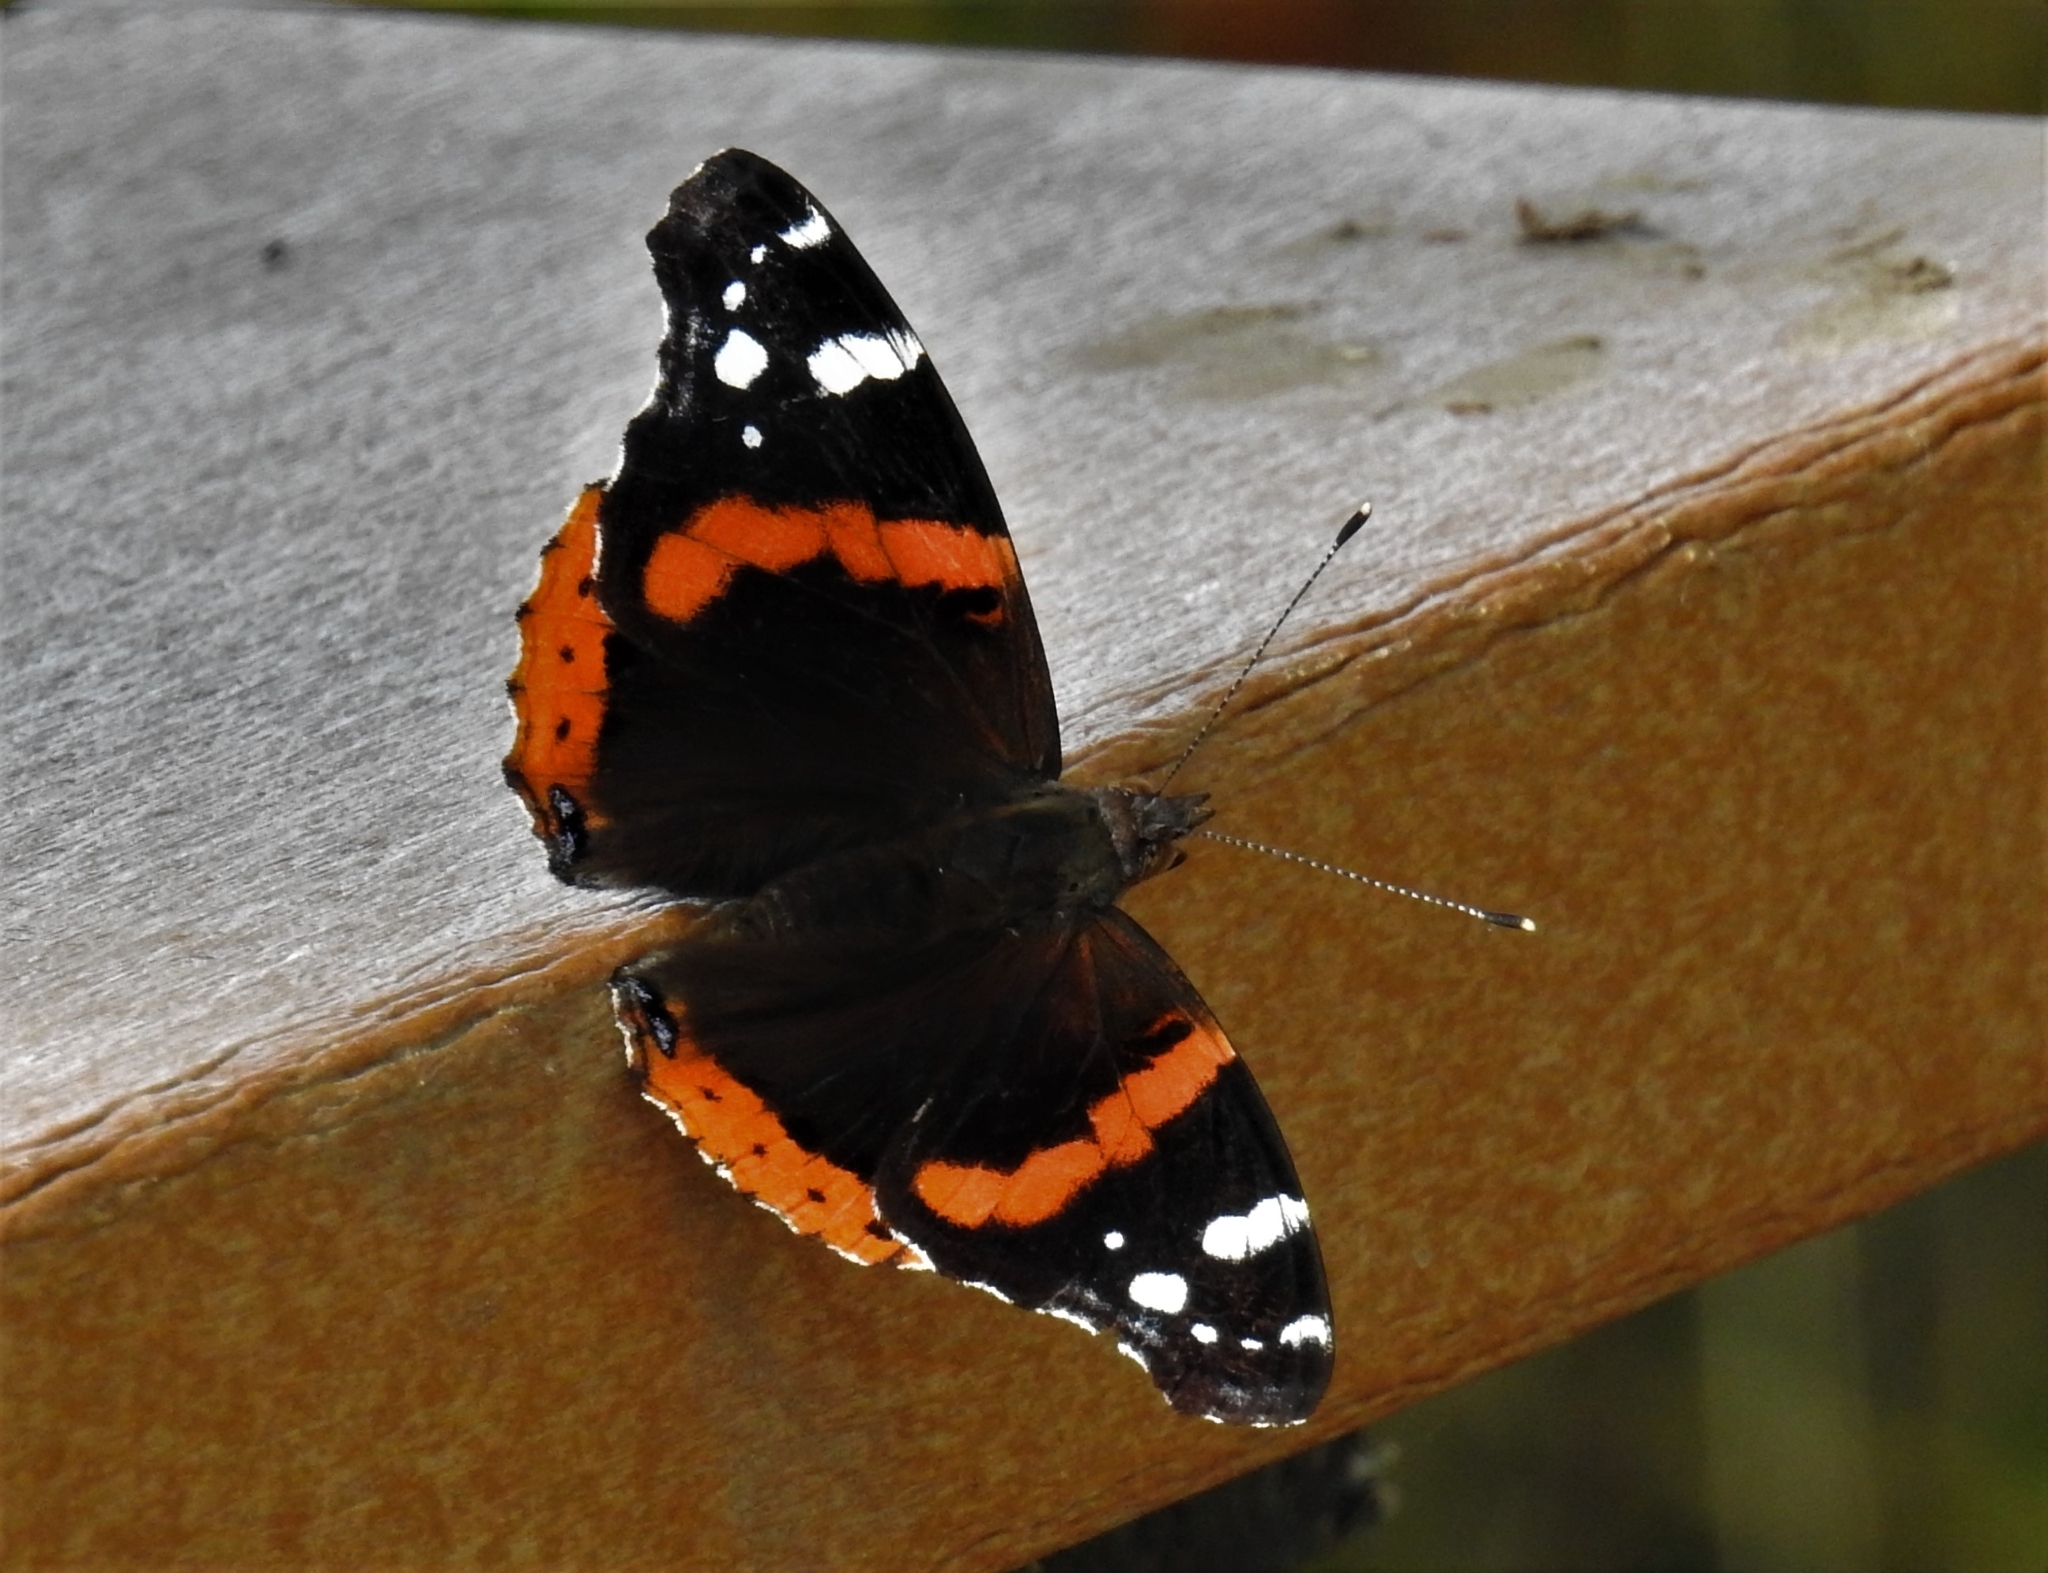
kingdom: Animalia
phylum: Arthropoda
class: Insecta
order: Lepidoptera
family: Nymphalidae
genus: Vanessa
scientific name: Vanessa atalanta
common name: Red admiral
